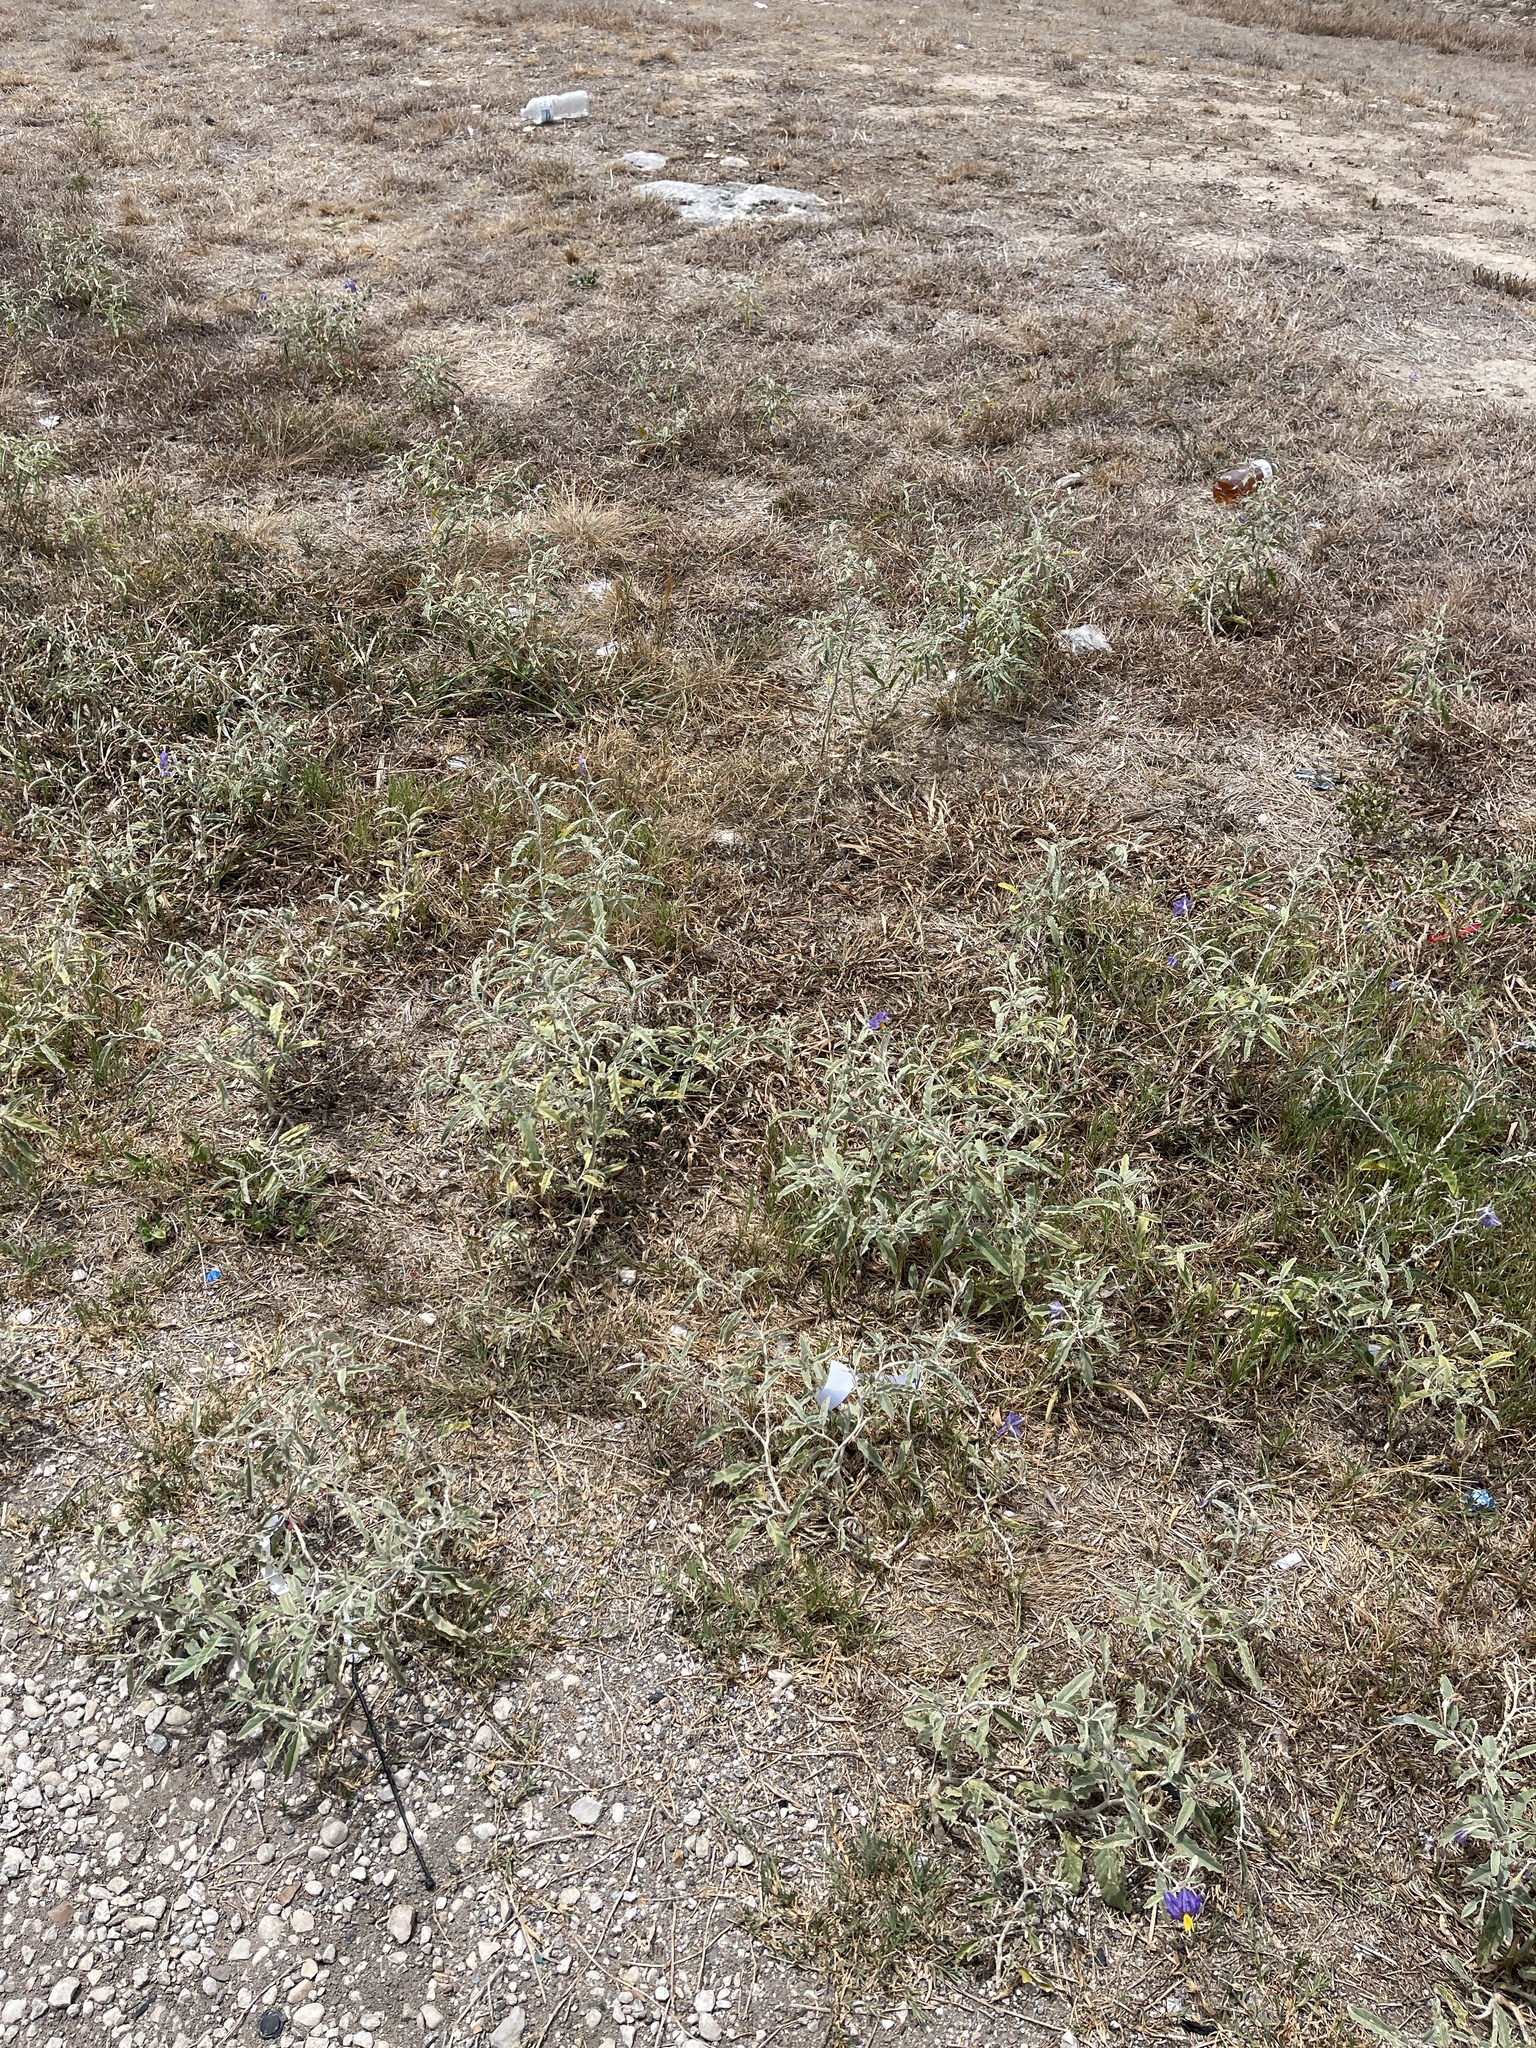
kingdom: Plantae
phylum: Tracheophyta
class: Magnoliopsida
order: Solanales
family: Solanaceae
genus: Solanum
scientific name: Solanum elaeagnifolium
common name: Silverleaf nightshade
